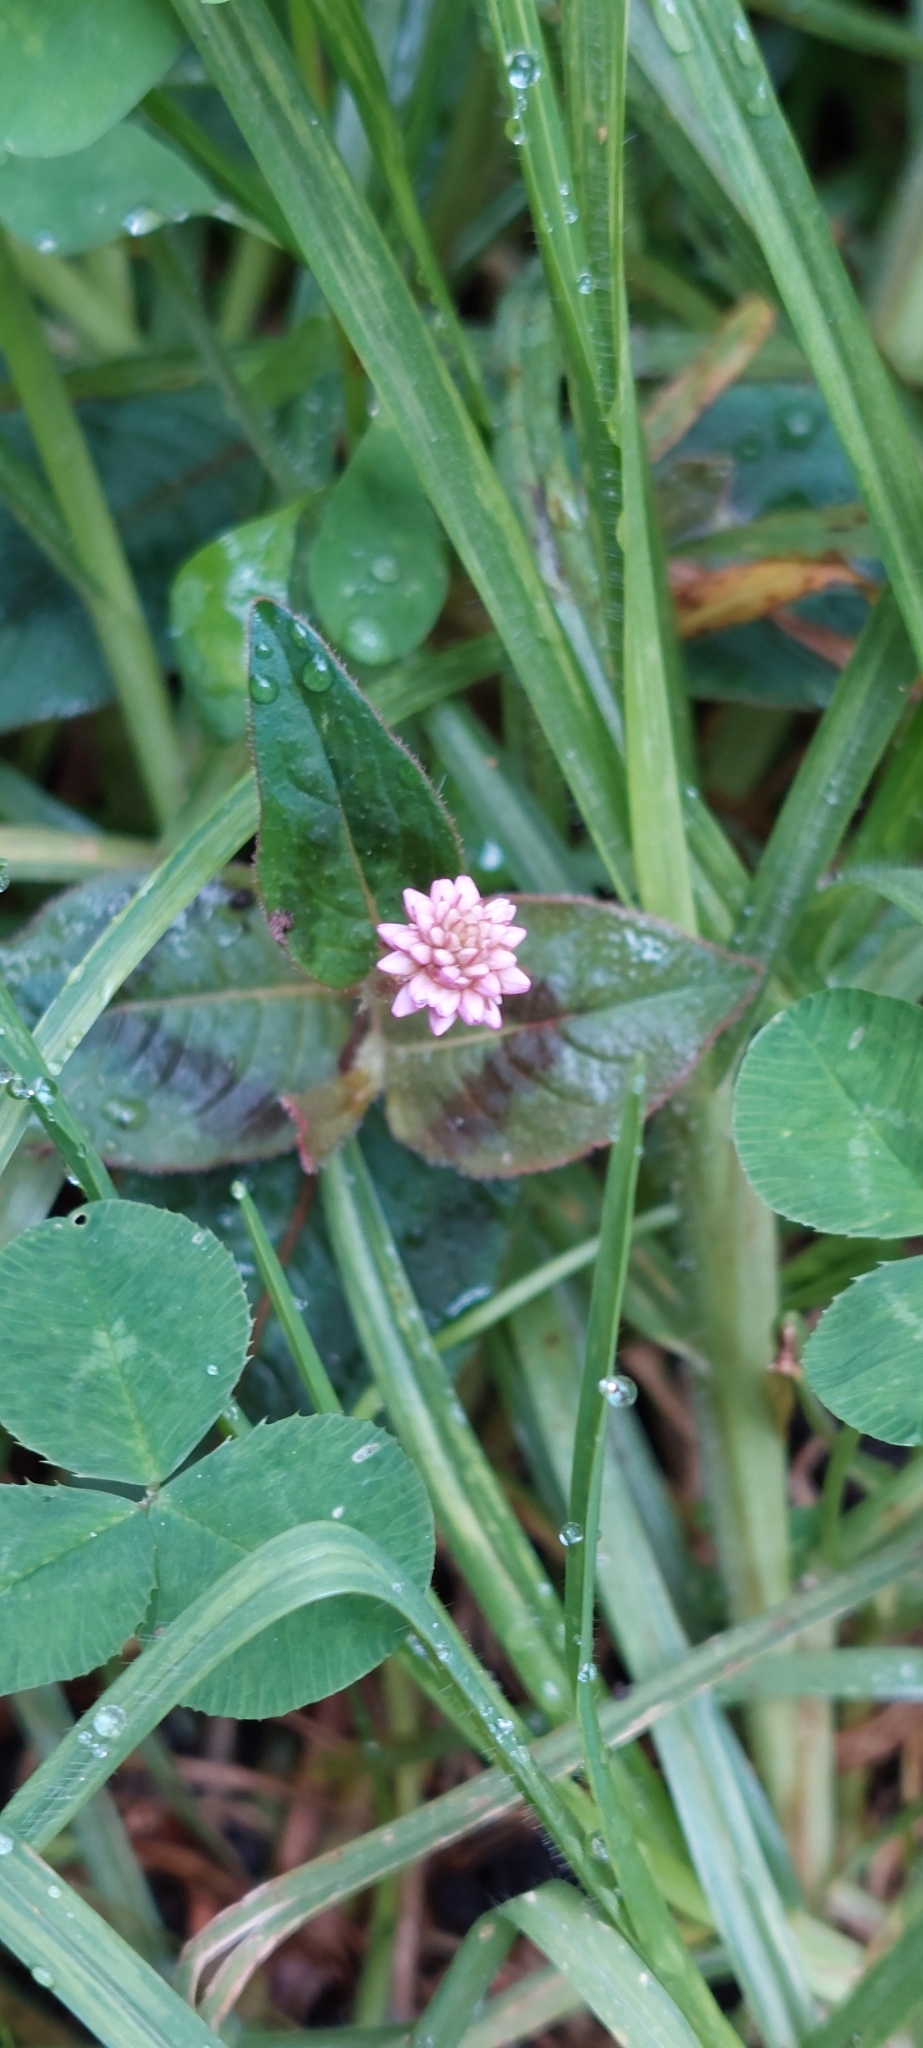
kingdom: Plantae
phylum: Tracheophyta
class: Magnoliopsida
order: Caryophyllales
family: Polygonaceae
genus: Persicaria
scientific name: Persicaria capitata
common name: Pinkhead smartweed
